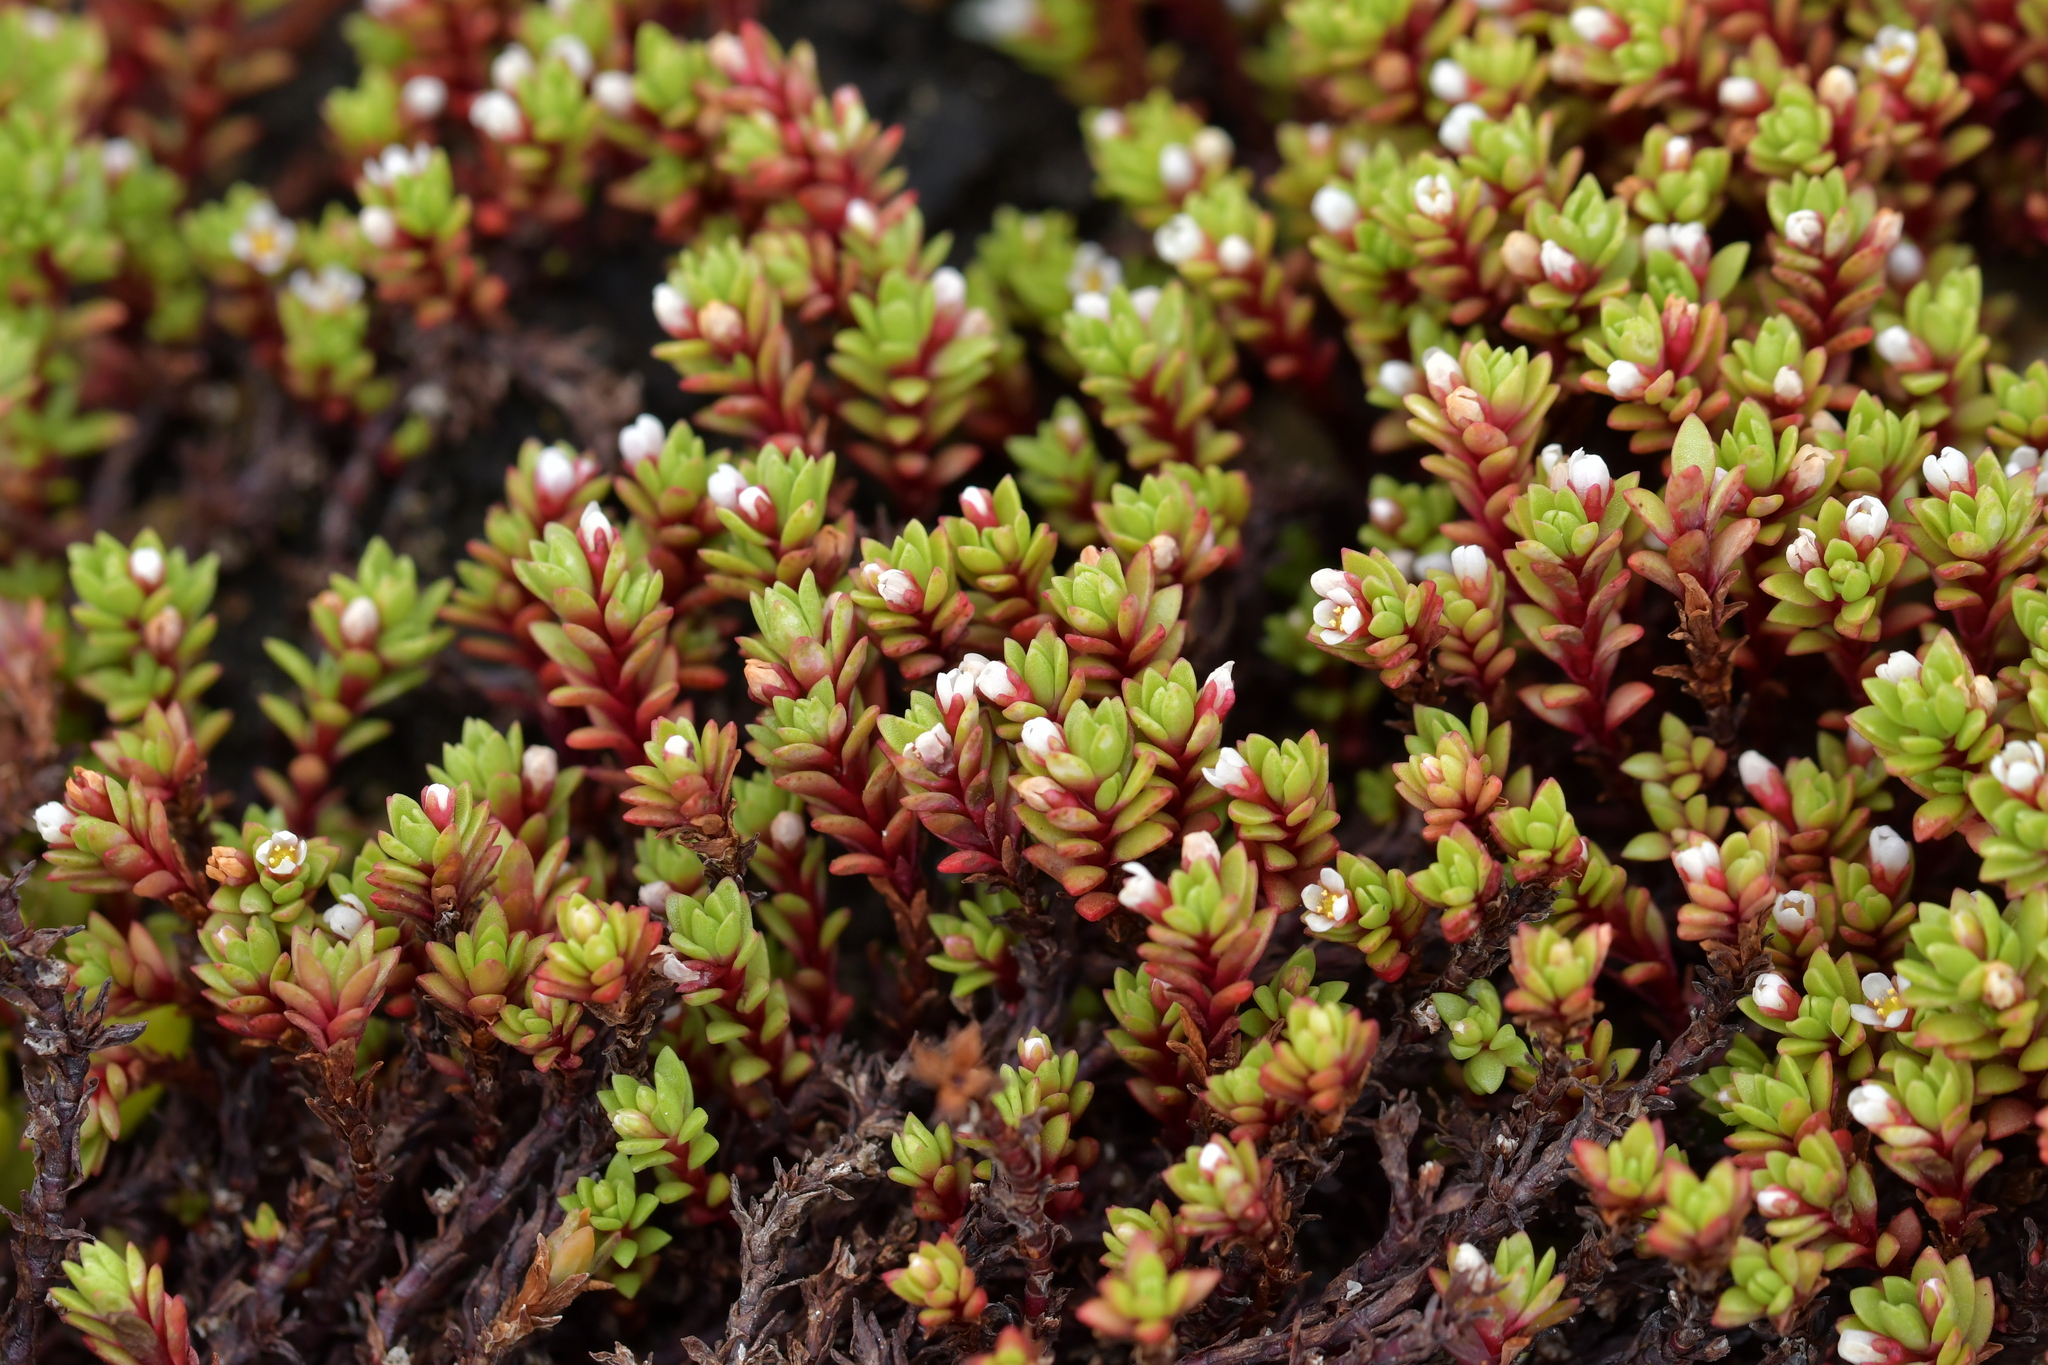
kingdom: Plantae
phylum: Tracheophyta
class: Magnoliopsida
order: Saxifragales
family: Crassulaceae
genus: Crassula
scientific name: Crassula moschata
